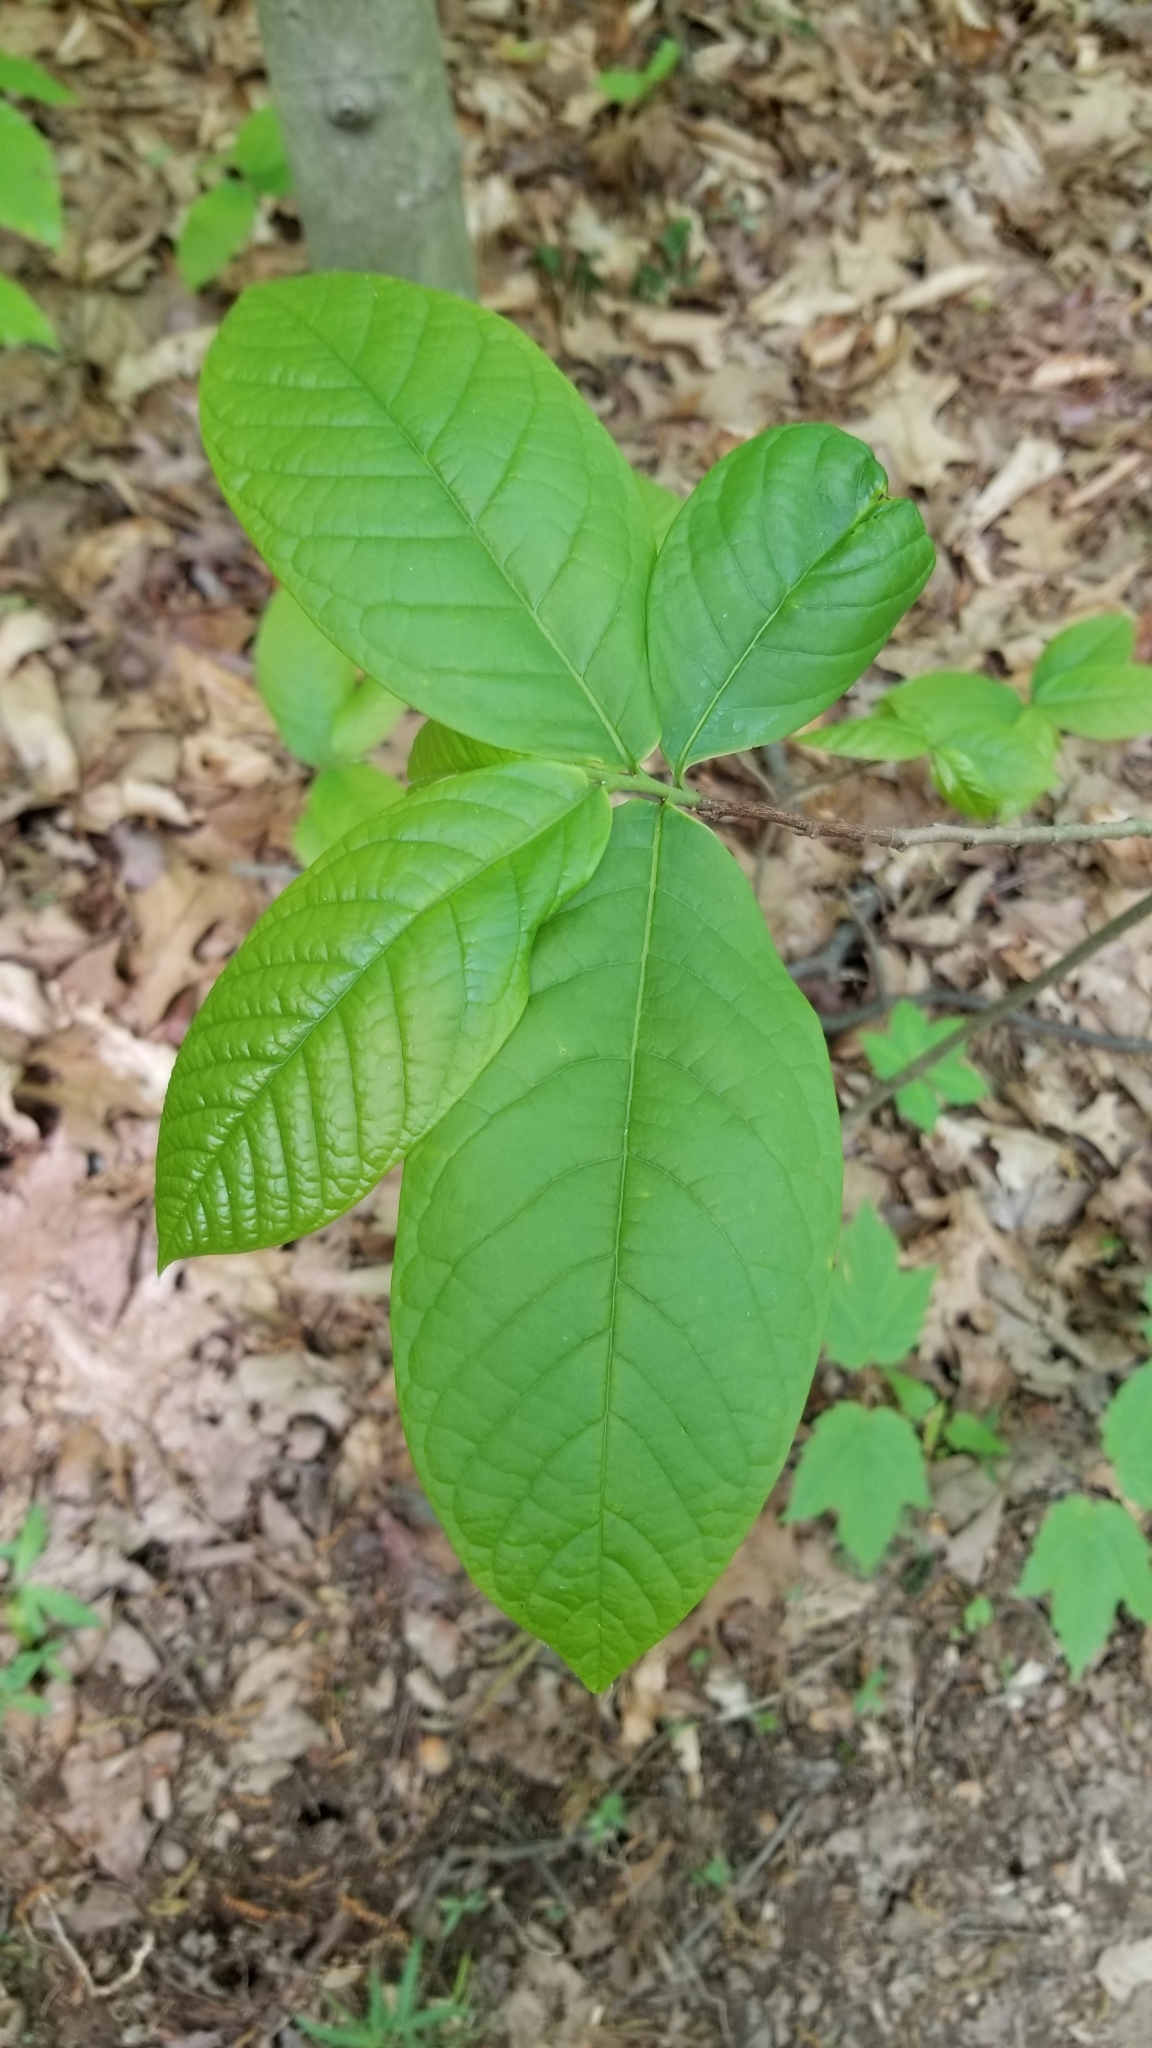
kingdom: Plantae
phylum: Tracheophyta
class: Magnoliopsida
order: Magnoliales
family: Annonaceae
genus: Asimina
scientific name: Asimina triloba
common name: Dog-banana
